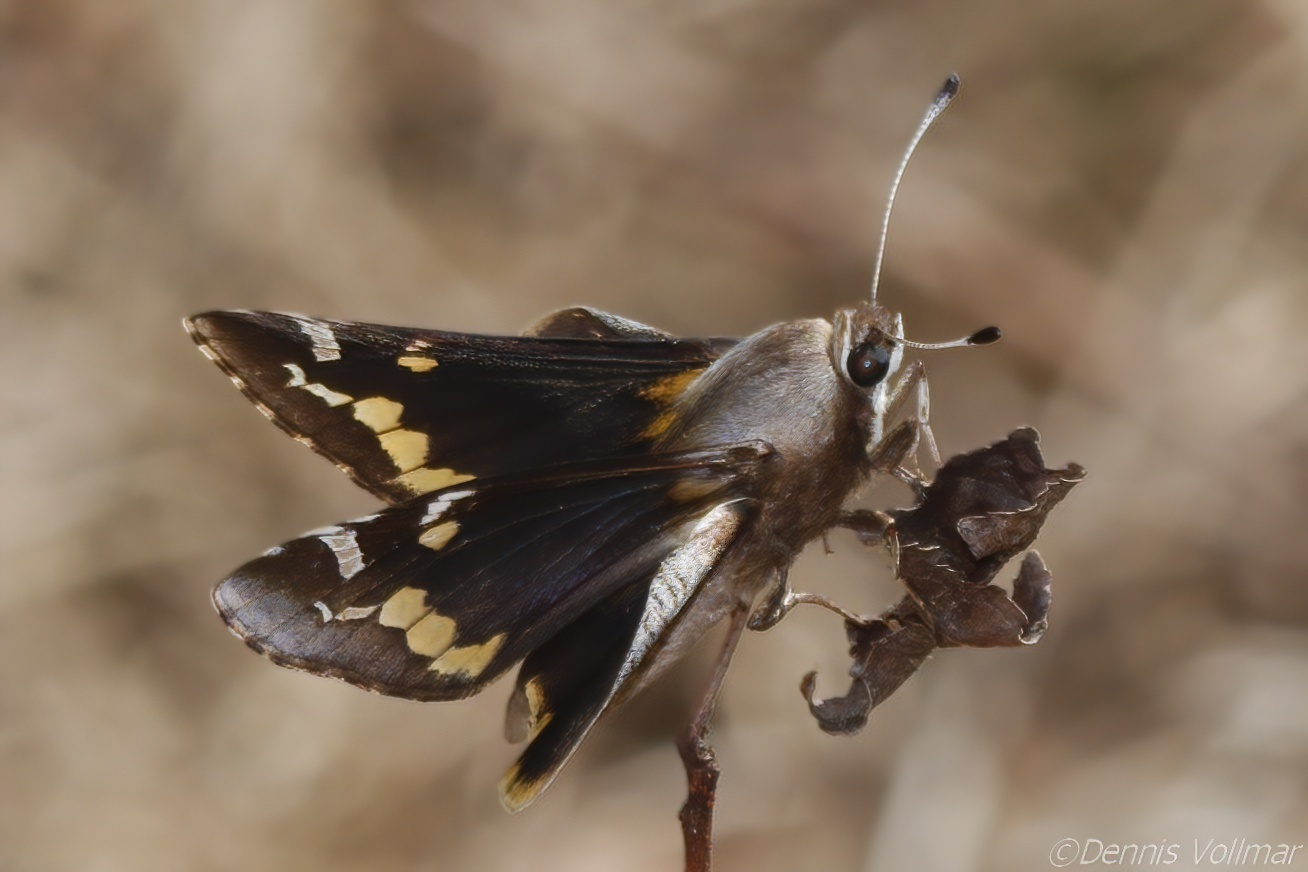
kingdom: Animalia
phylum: Arthropoda
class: Insecta
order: Lepidoptera
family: Hesperiidae
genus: Megathymus
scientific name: Megathymus yuccae
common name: Yucca giant-skipper
